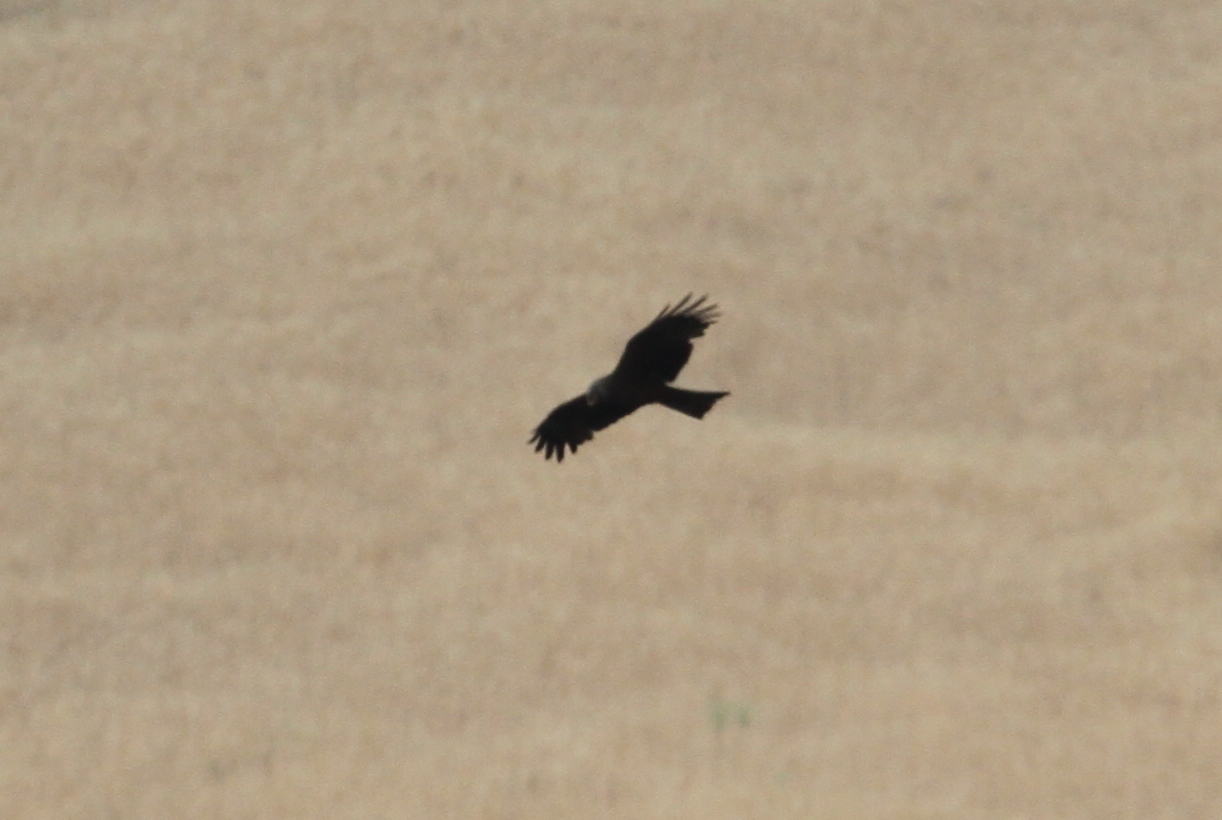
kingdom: Animalia
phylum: Chordata
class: Aves
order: Accipitriformes
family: Accipitridae
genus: Milvus
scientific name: Milvus migrans
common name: Black kite
